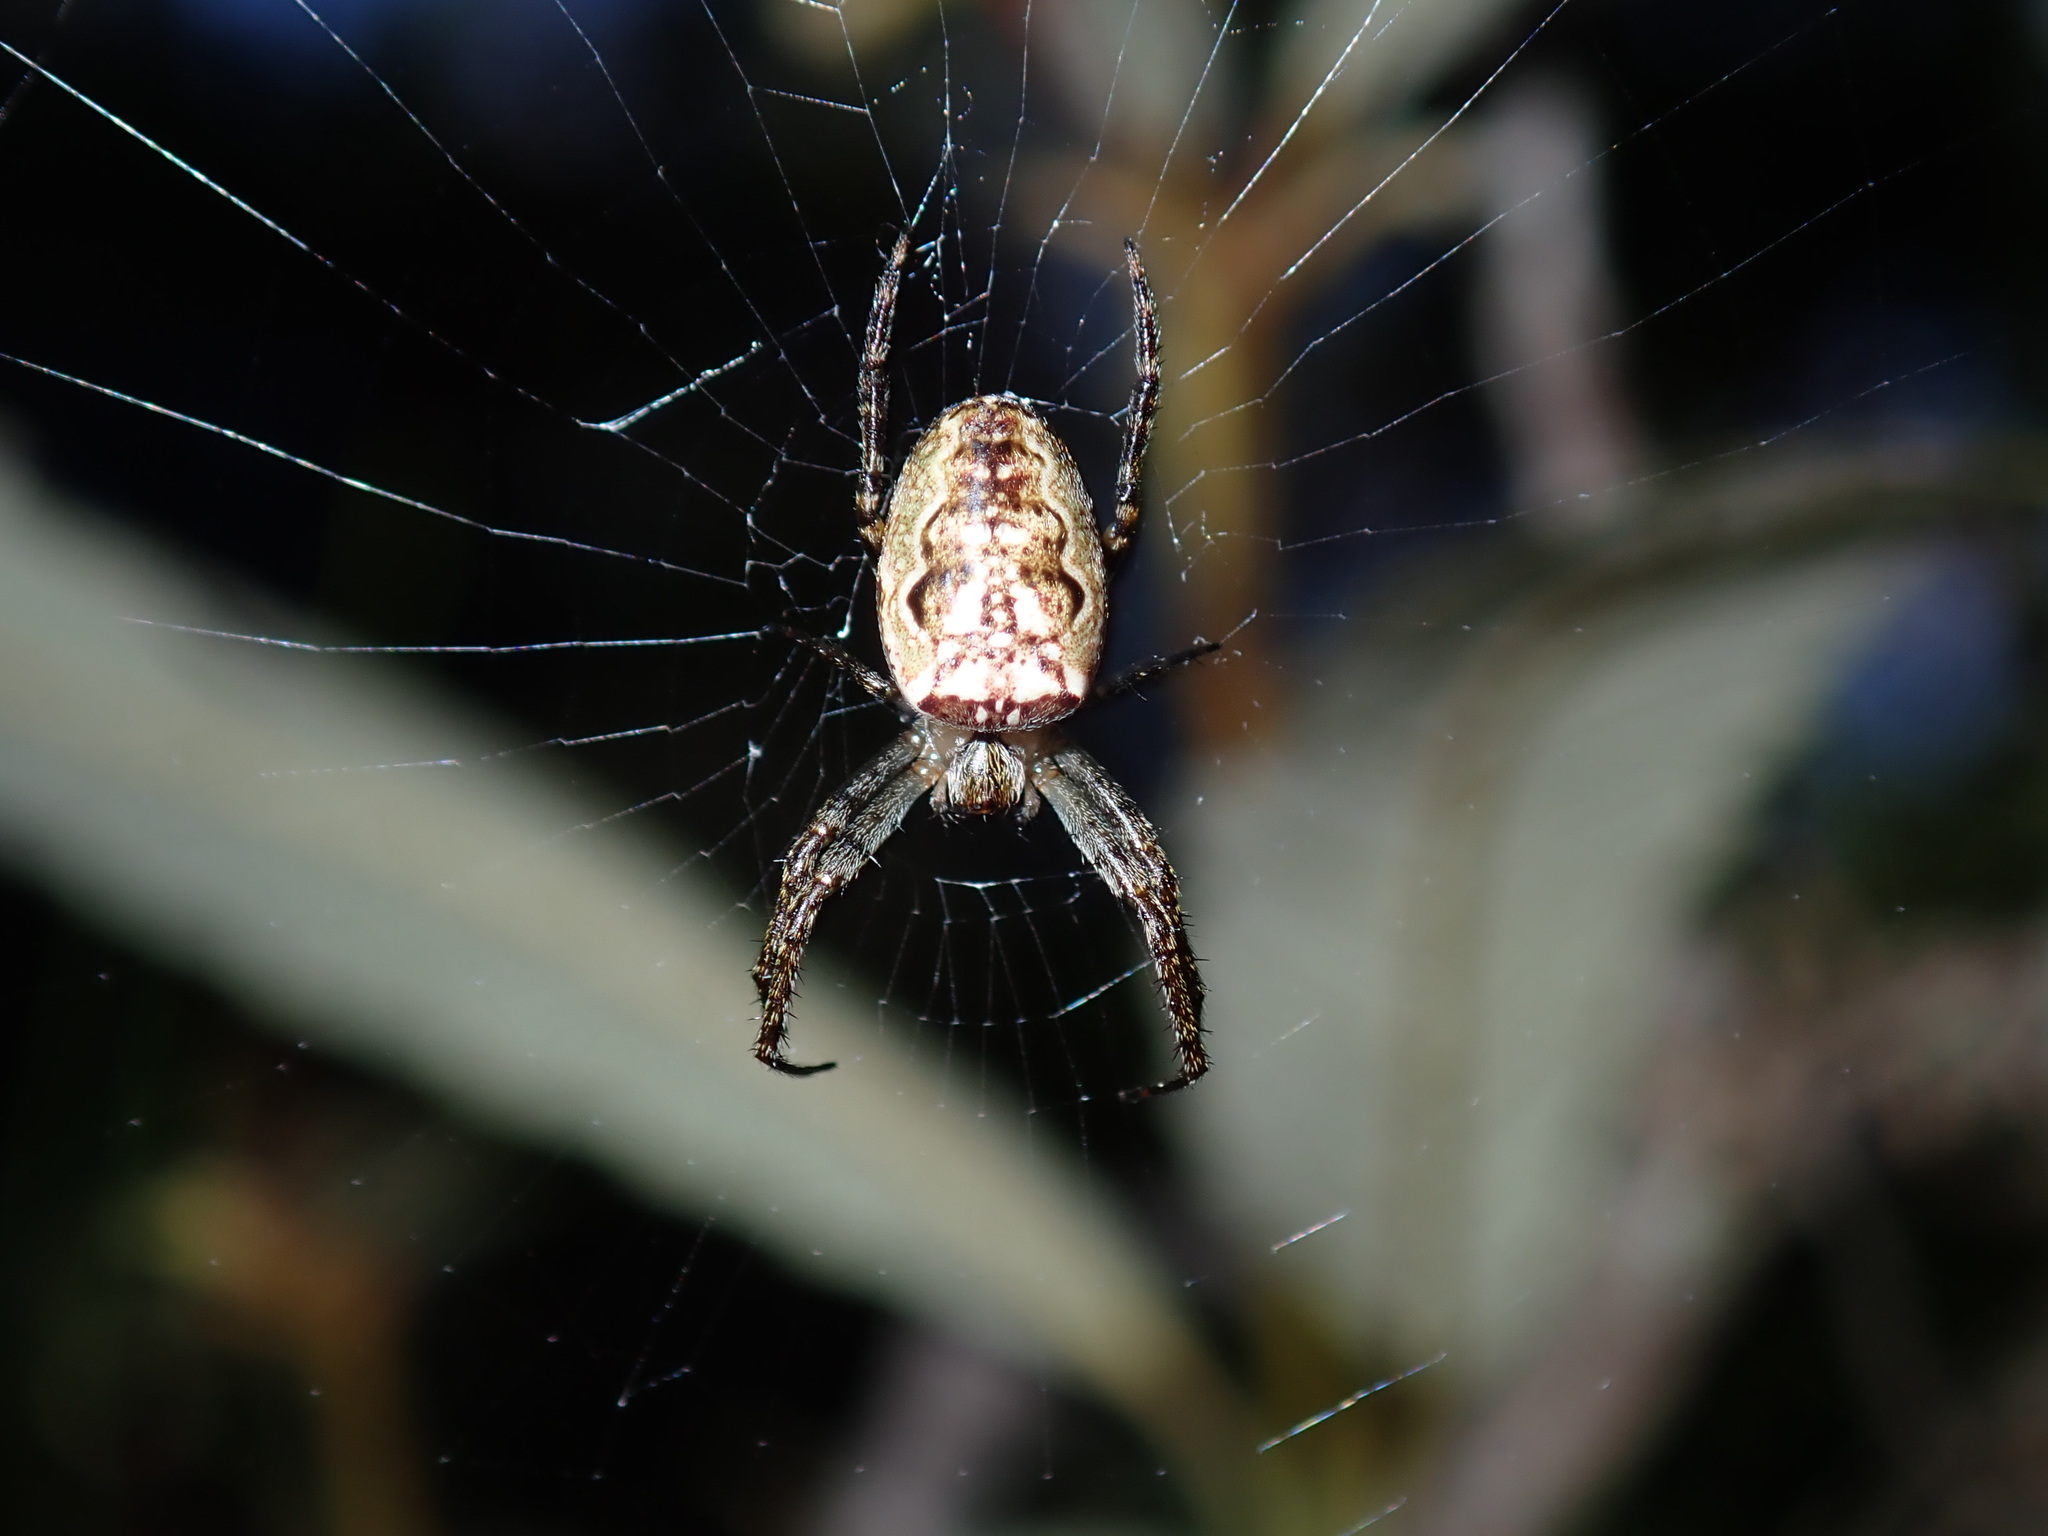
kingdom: Animalia
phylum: Arthropoda
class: Arachnida
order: Araneae
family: Araneidae
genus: Plebs
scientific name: Plebs eburnus
